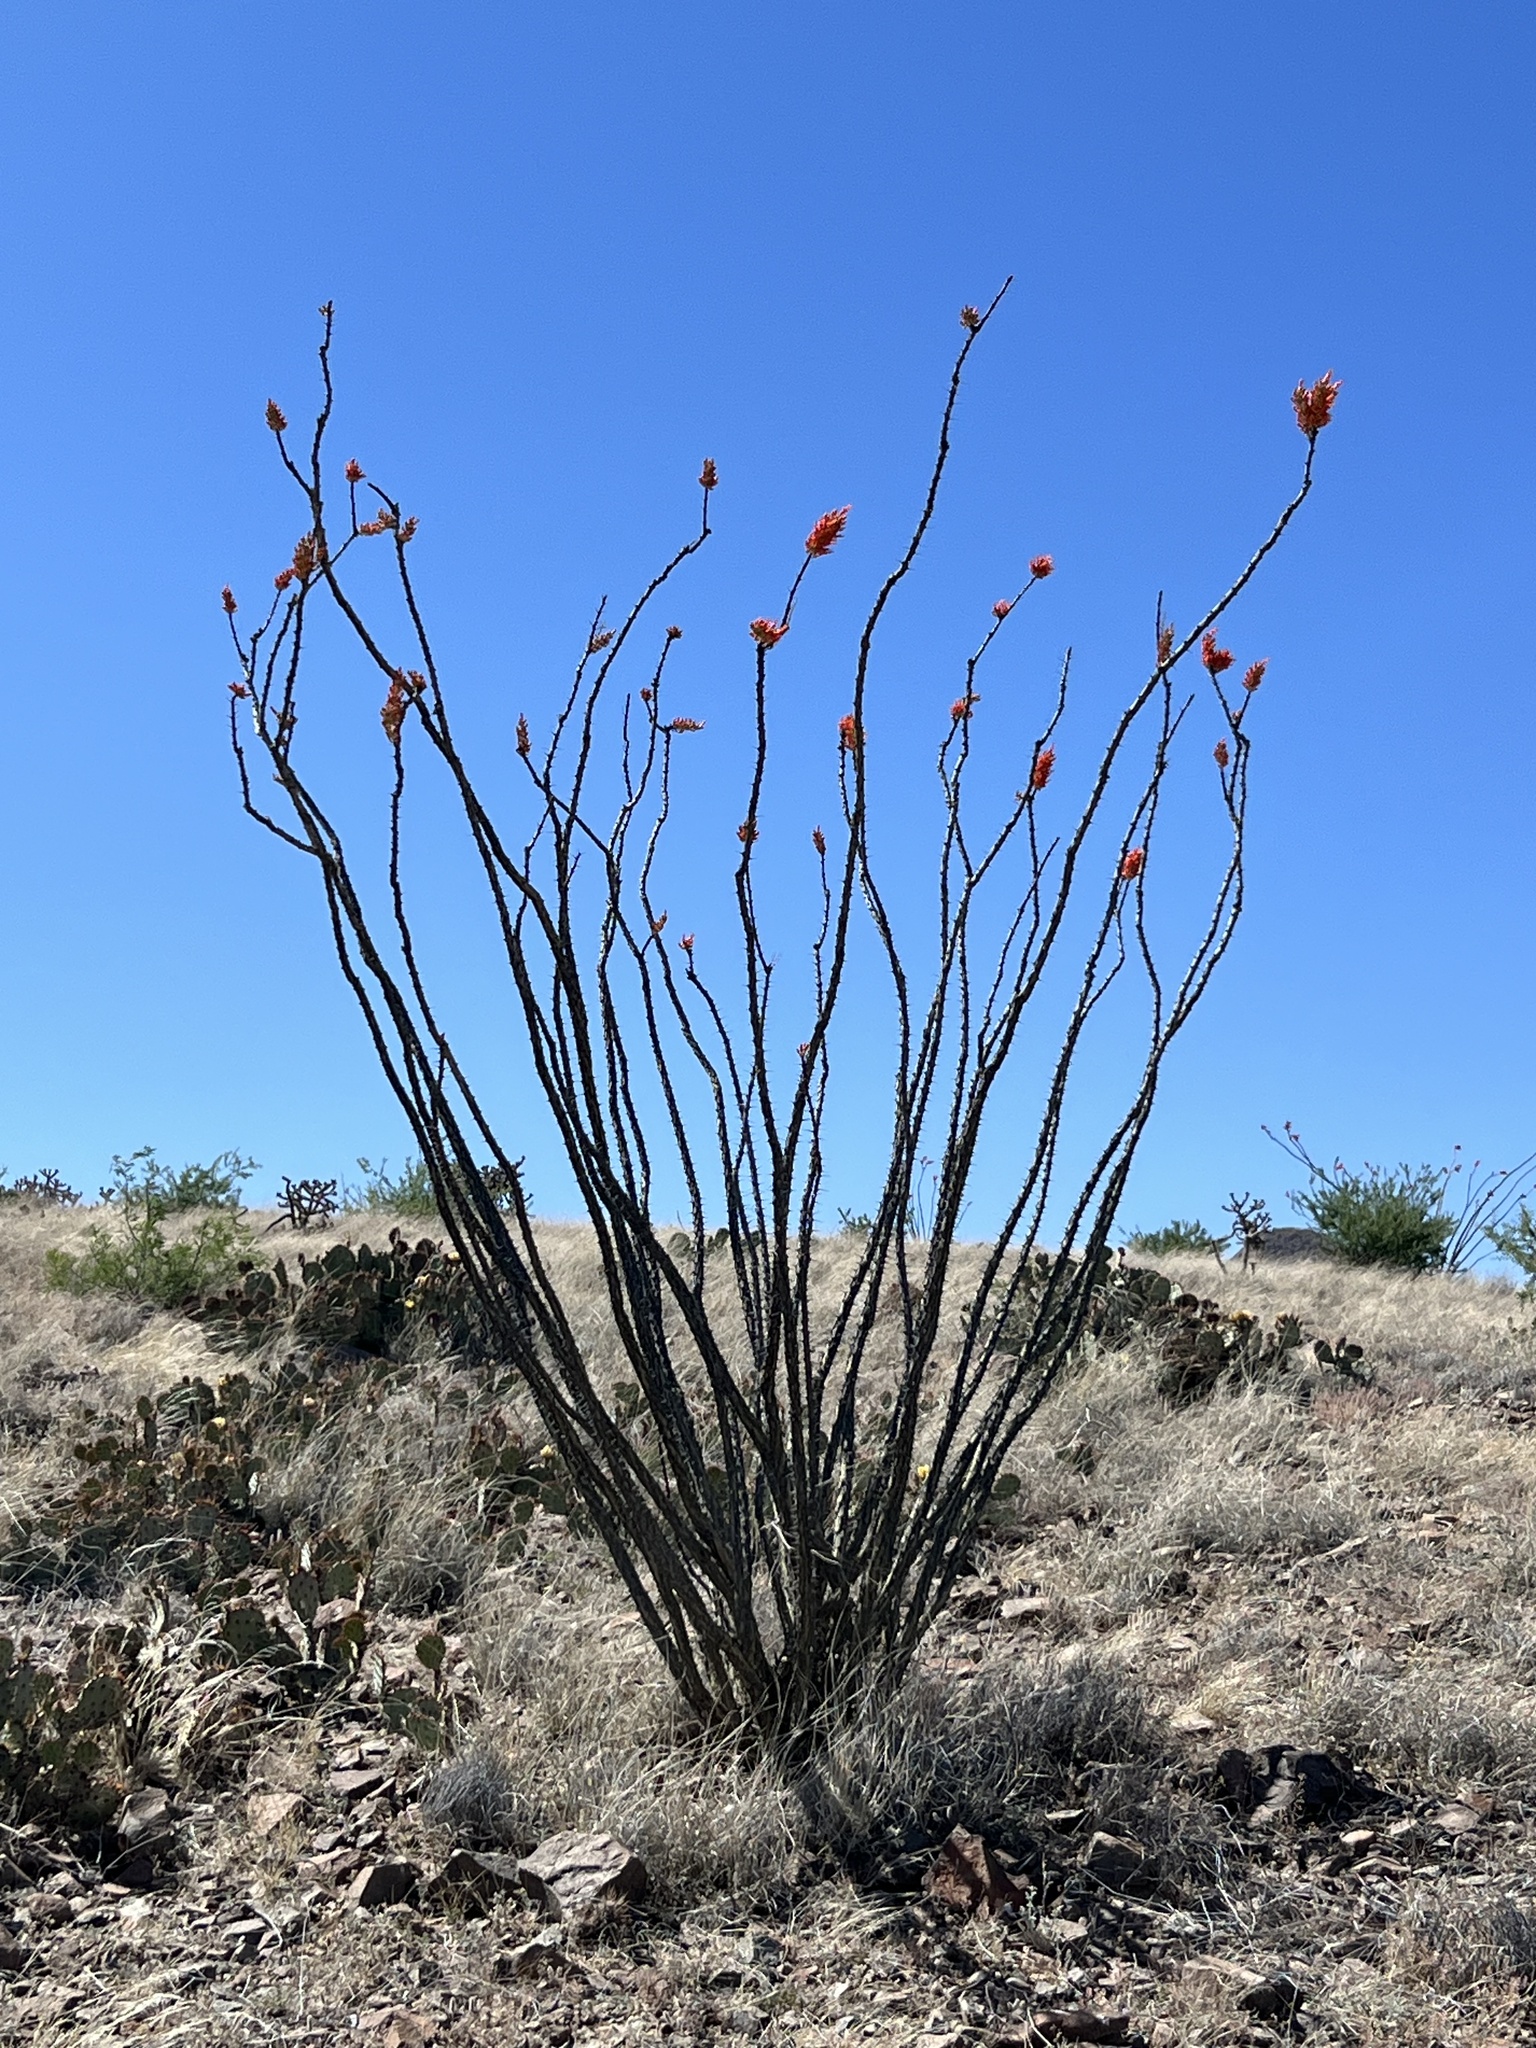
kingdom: Plantae
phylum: Tracheophyta
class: Magnoliopsida
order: Ericales
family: Fouquieriaceae
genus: Fouquieria
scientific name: Fouquieria splendens
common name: Vine-cactus
